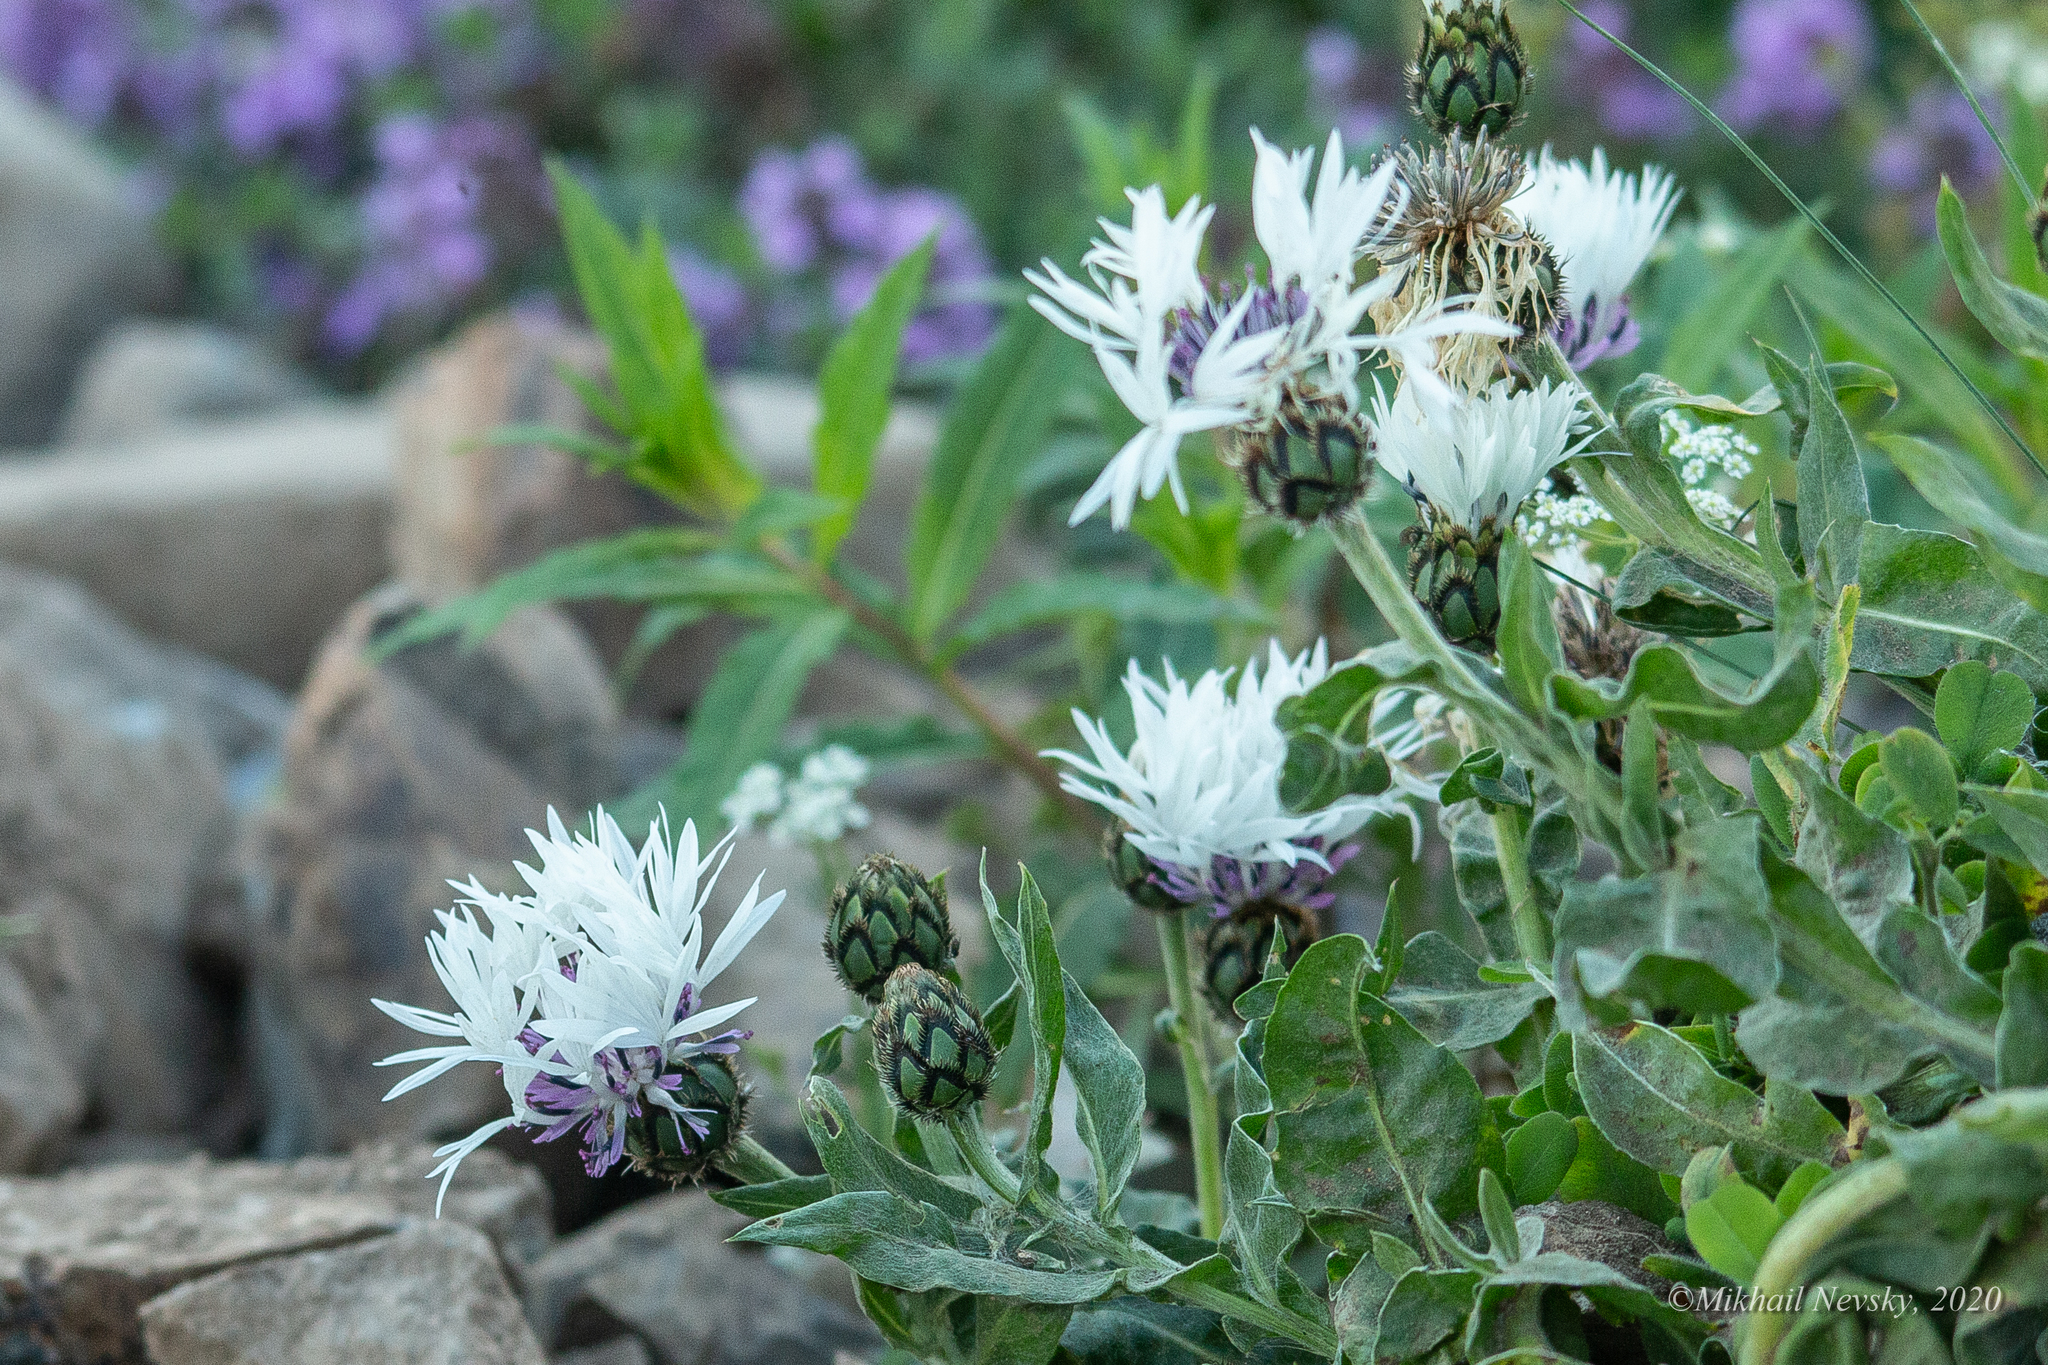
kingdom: Plantae
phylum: Tracheophyta
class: Magnoliopsida
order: Asterales
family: Asteraceae
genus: Centaurea
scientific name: Centaurea cheiranthifolia
